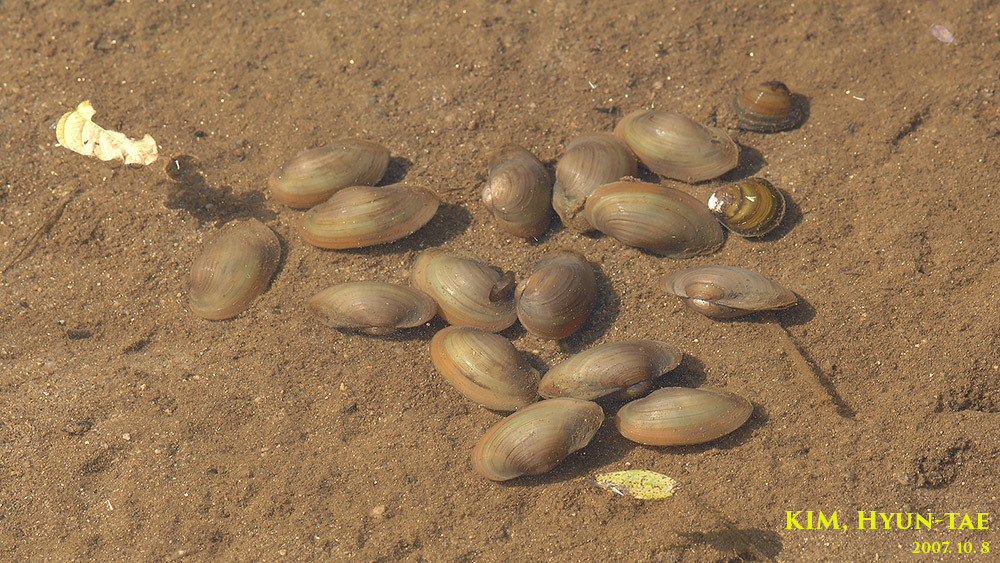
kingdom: Animalia
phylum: Mollusca
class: Bivalvia
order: Unionida
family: Unionidae
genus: Buldowskia
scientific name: Buldowskia shadini
